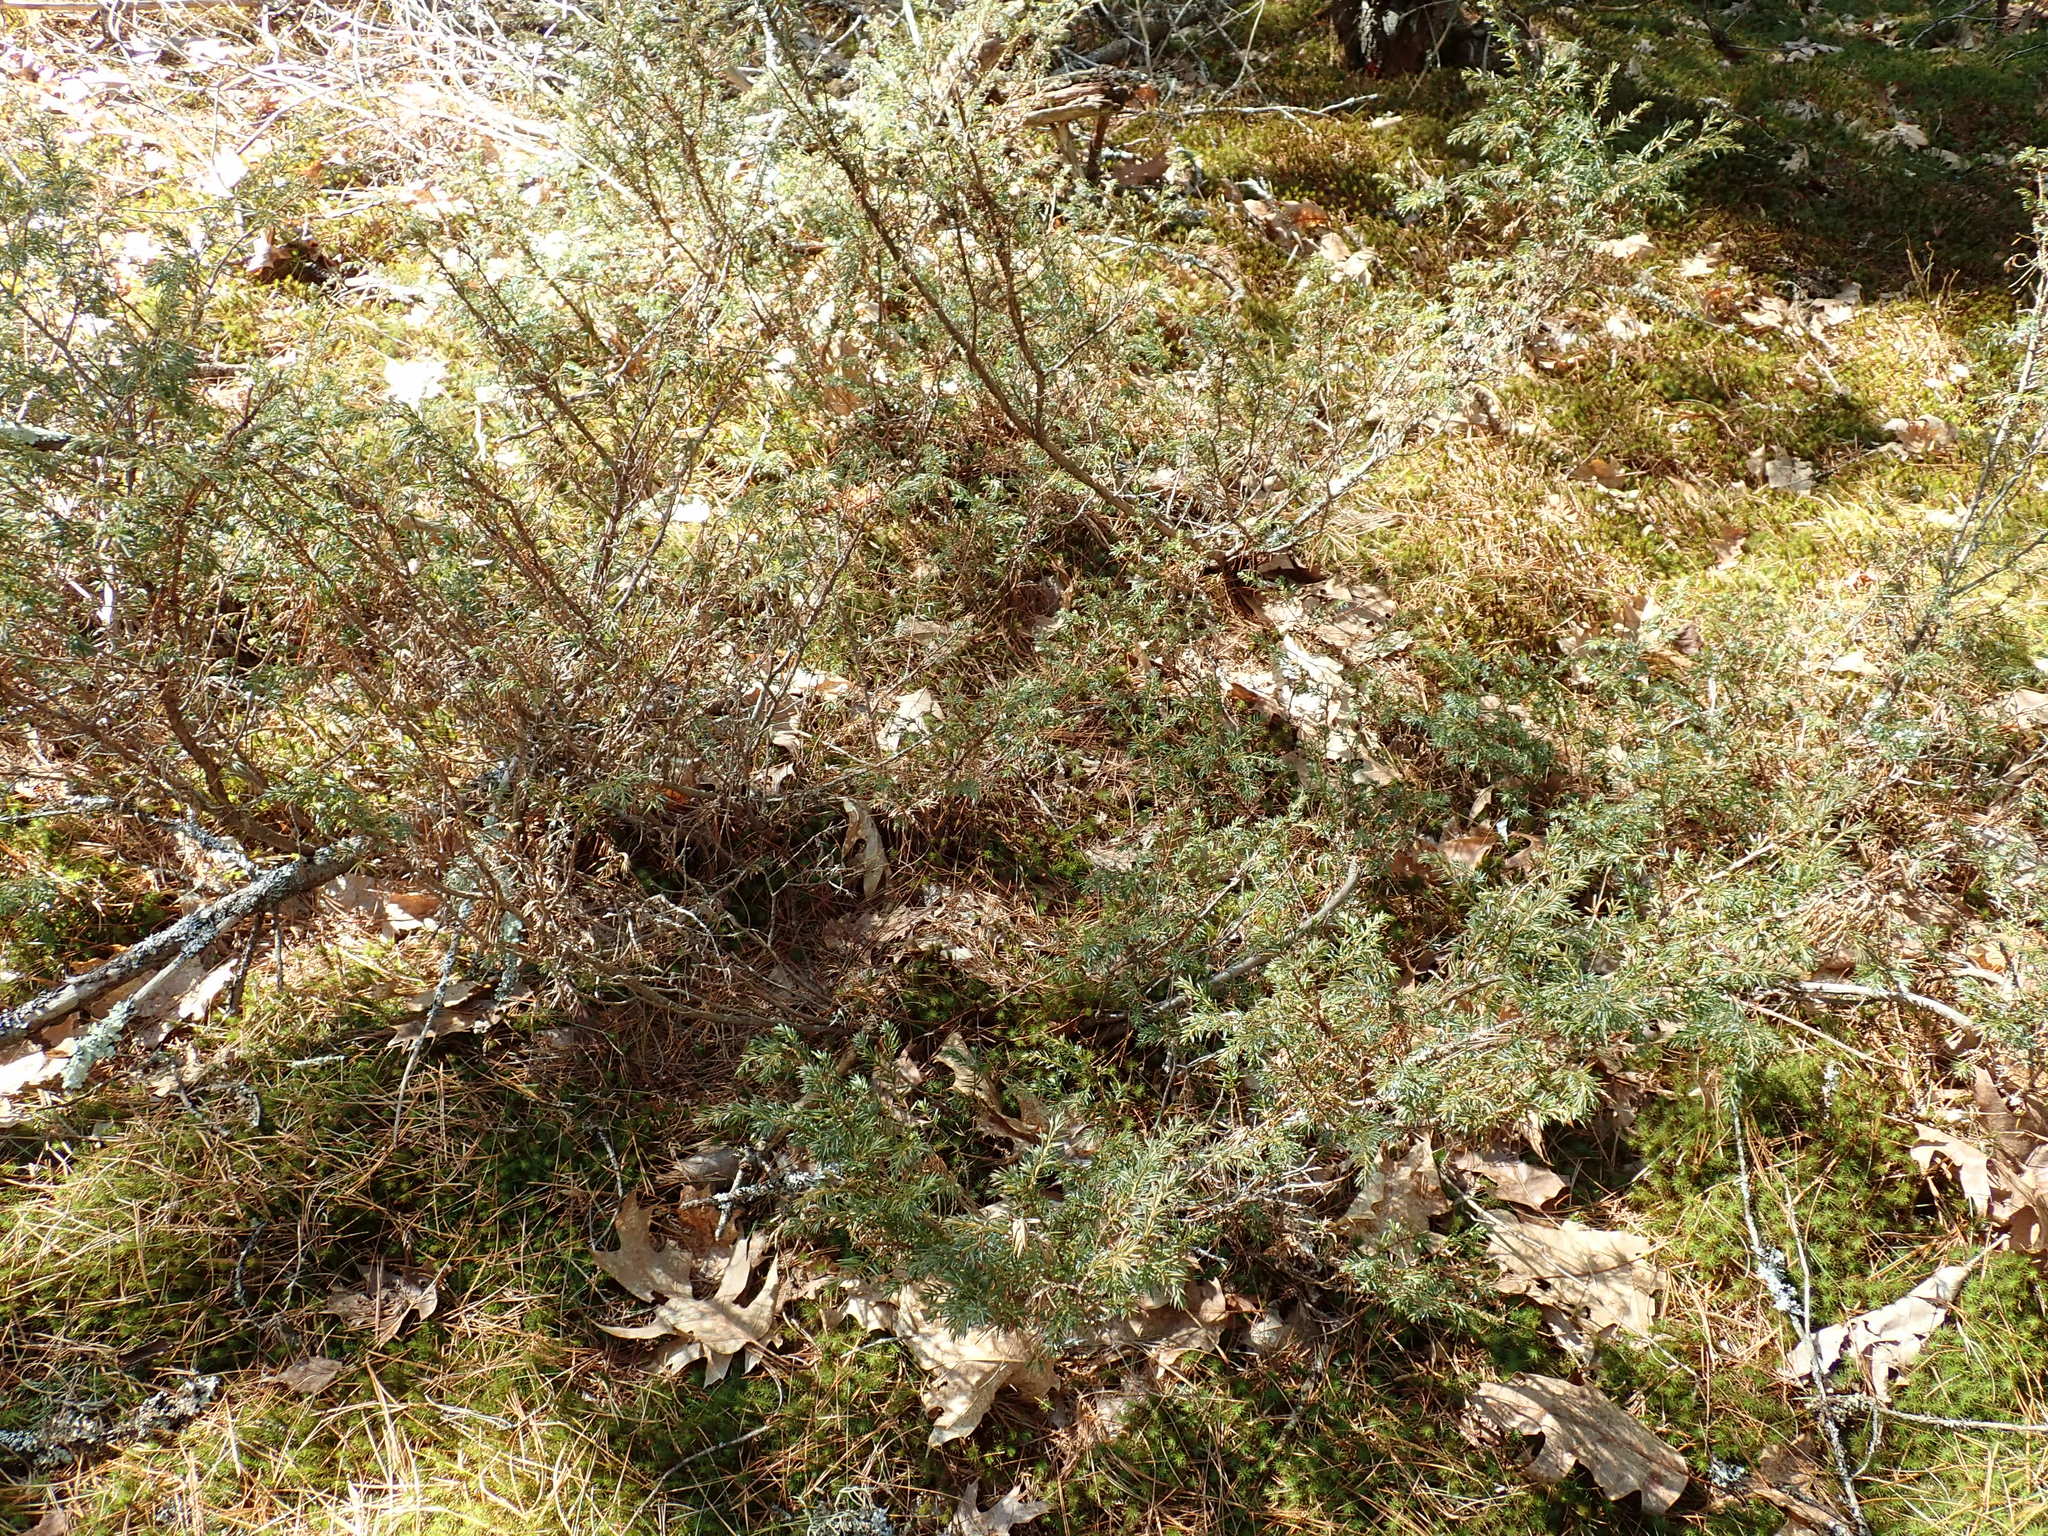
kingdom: Plantae
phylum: Tracheophyta
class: Pinopsida
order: Pinales
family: Cupressaceae
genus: Juniperus
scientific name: Juniperus communis
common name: Common juniper
